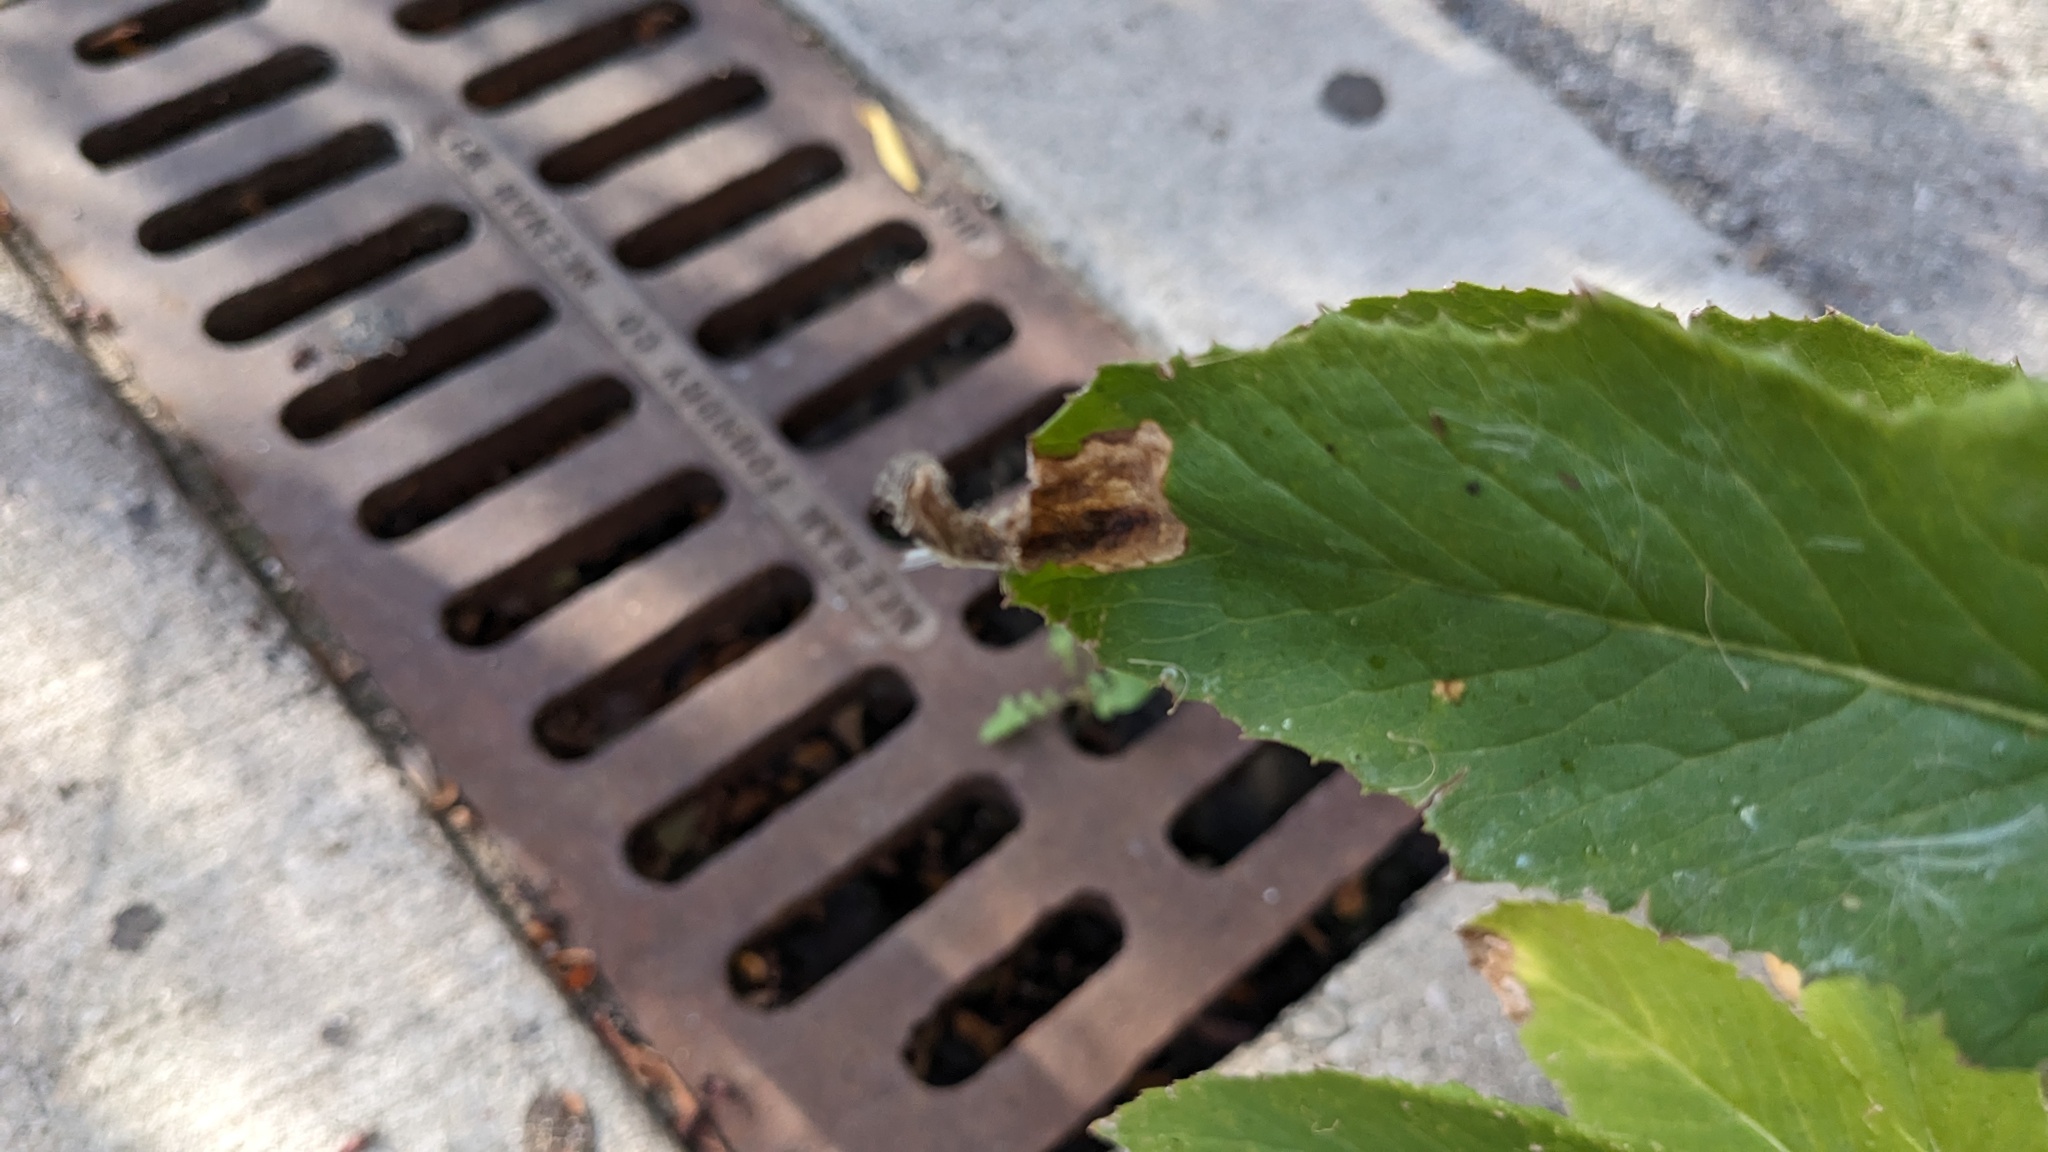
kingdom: Animalia
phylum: Arthropoda
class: Insecta
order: Diptera
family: Agromyzidae
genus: Nemorimyza
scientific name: Nemorimyza maculosa
